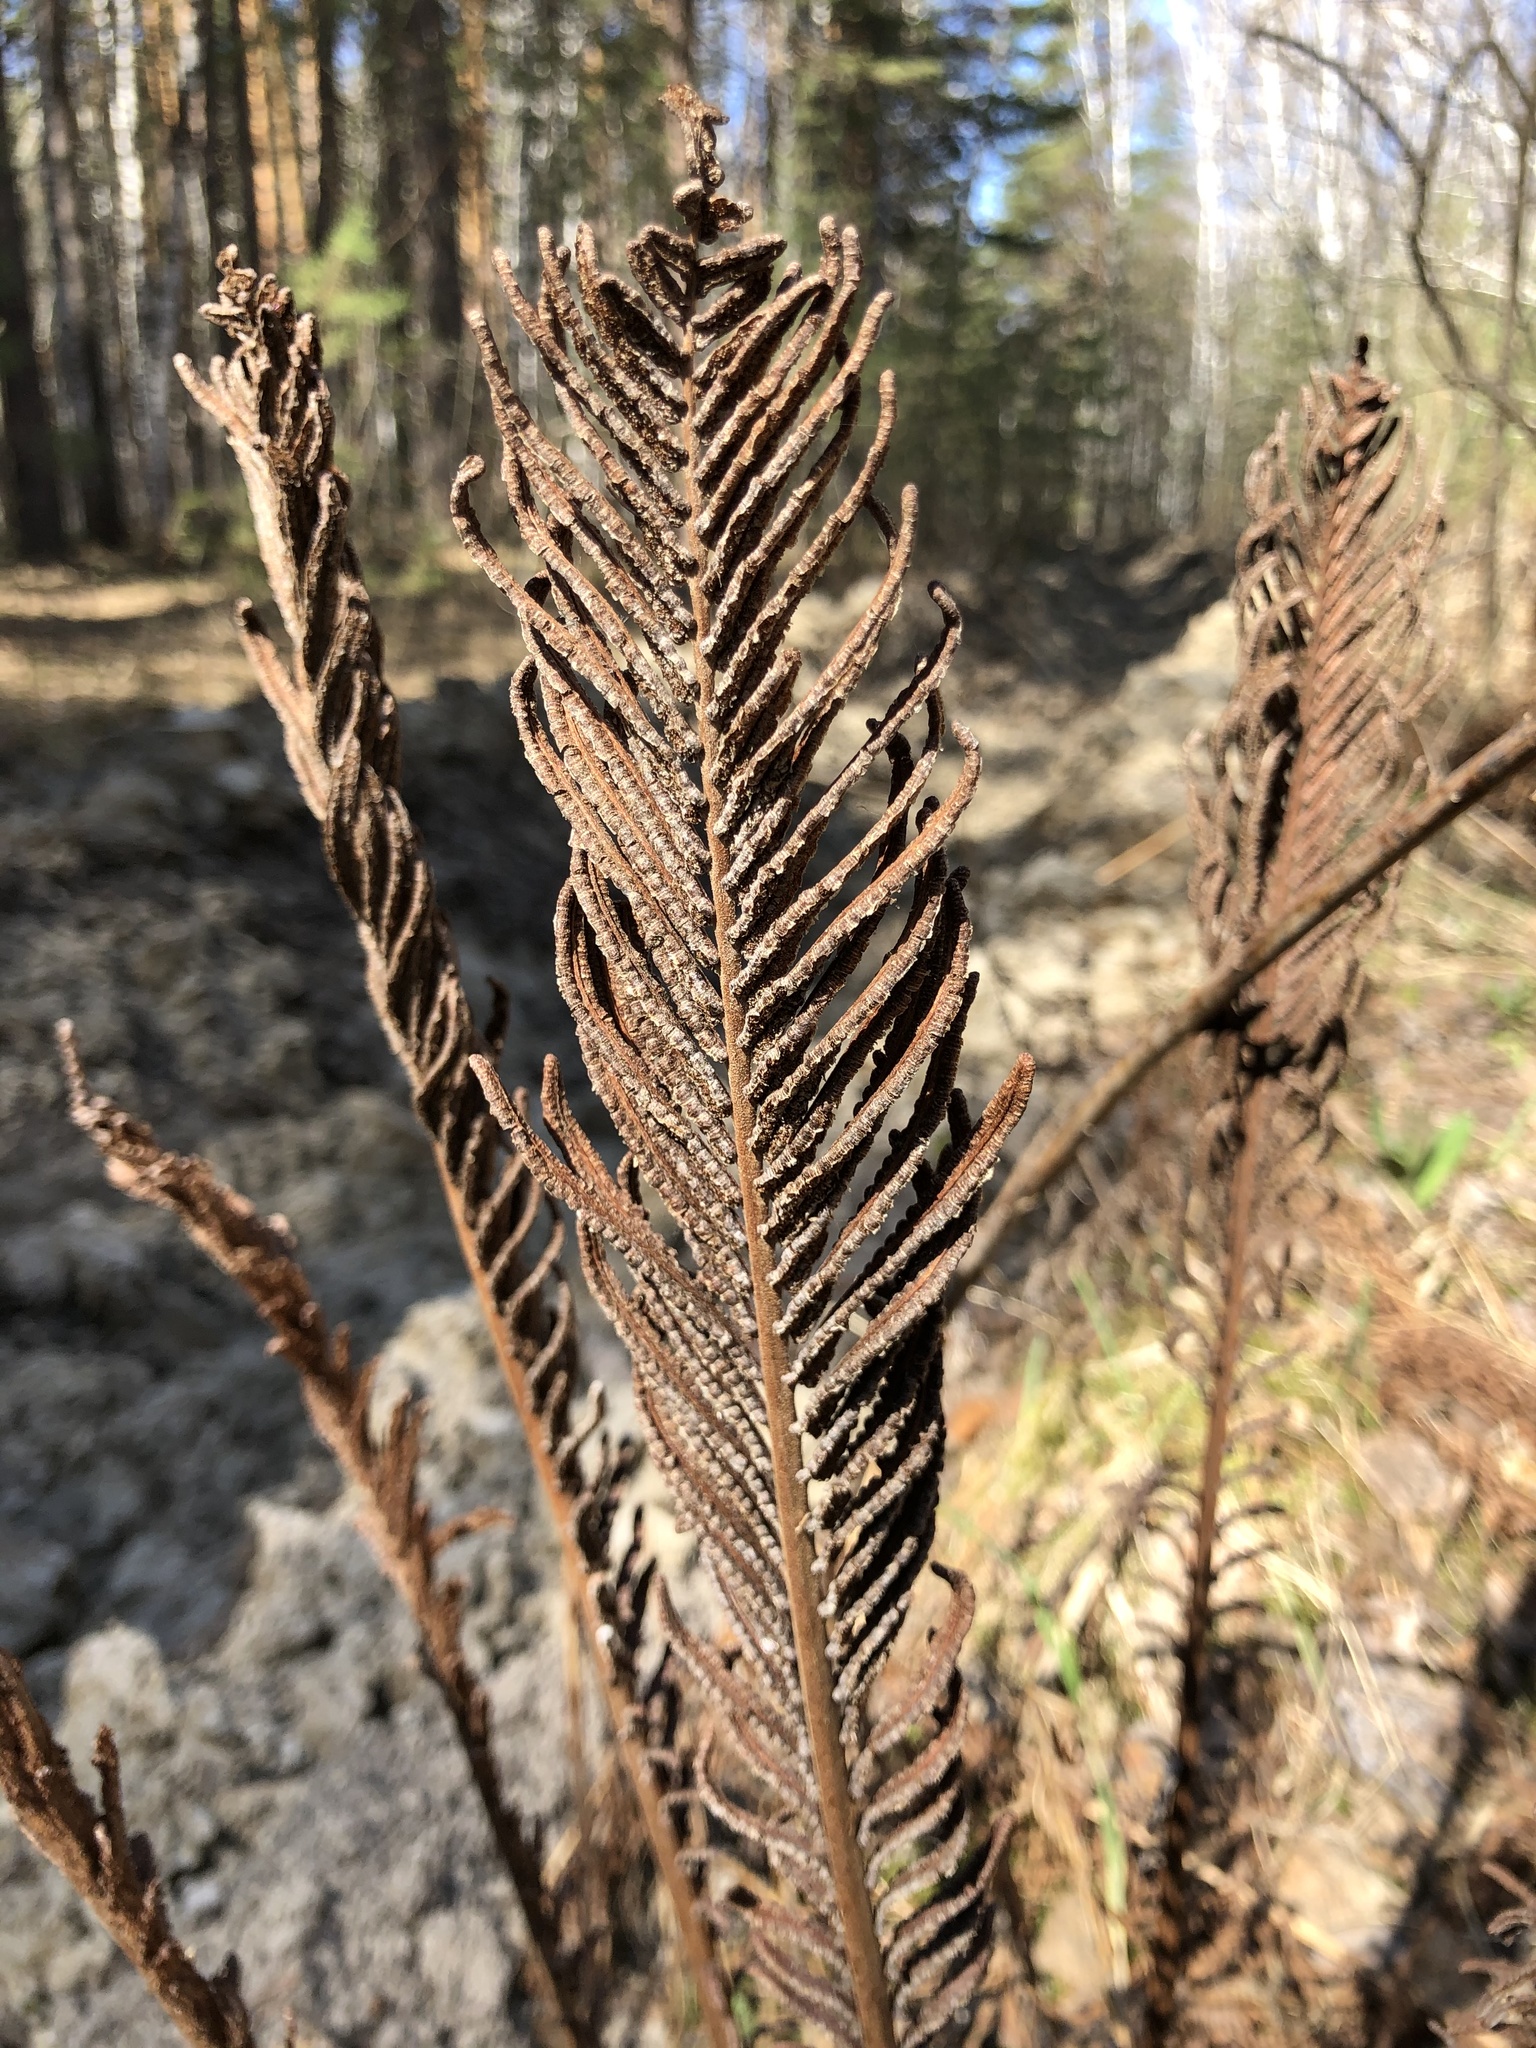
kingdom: Plantae
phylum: Tracheophyta
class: Polypodiopsida
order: Polypodiales
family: Onocleaceae
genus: Matteuccia
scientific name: Matteuccia struthiopteris
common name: Ostrich fern
